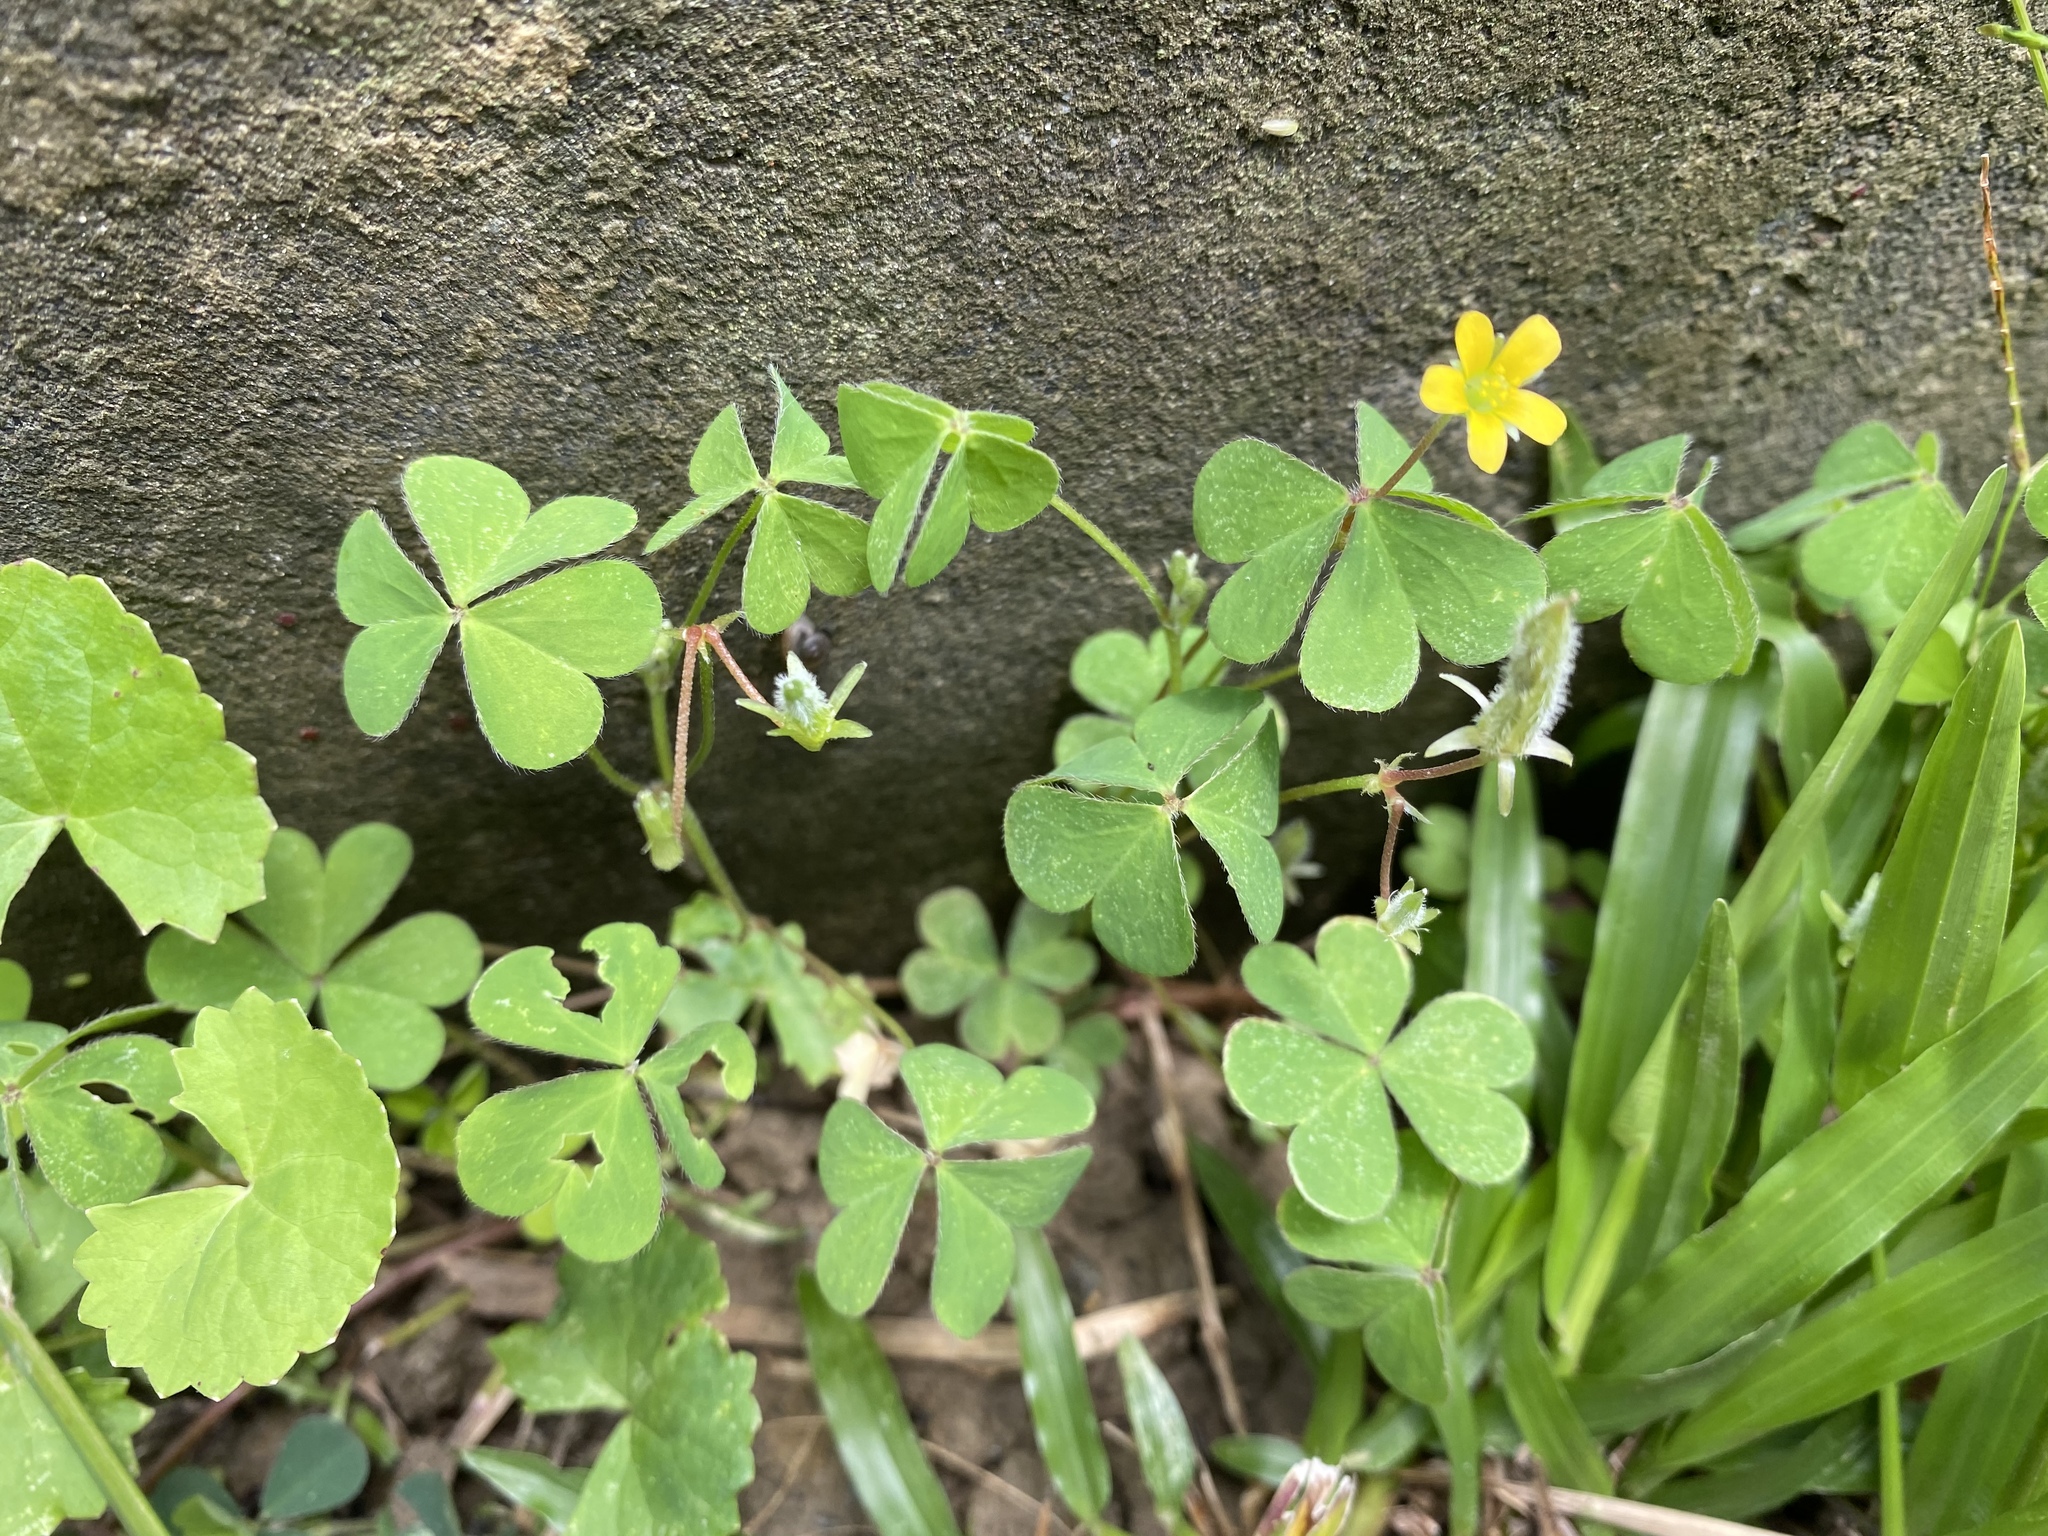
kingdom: Plantae
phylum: Tracheophyta
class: Magnoliopsida
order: Oxalidales
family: Oxalidaceae
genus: Oxalis
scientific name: Oxalis corniculata
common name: Procumbent yellow-sorrel
